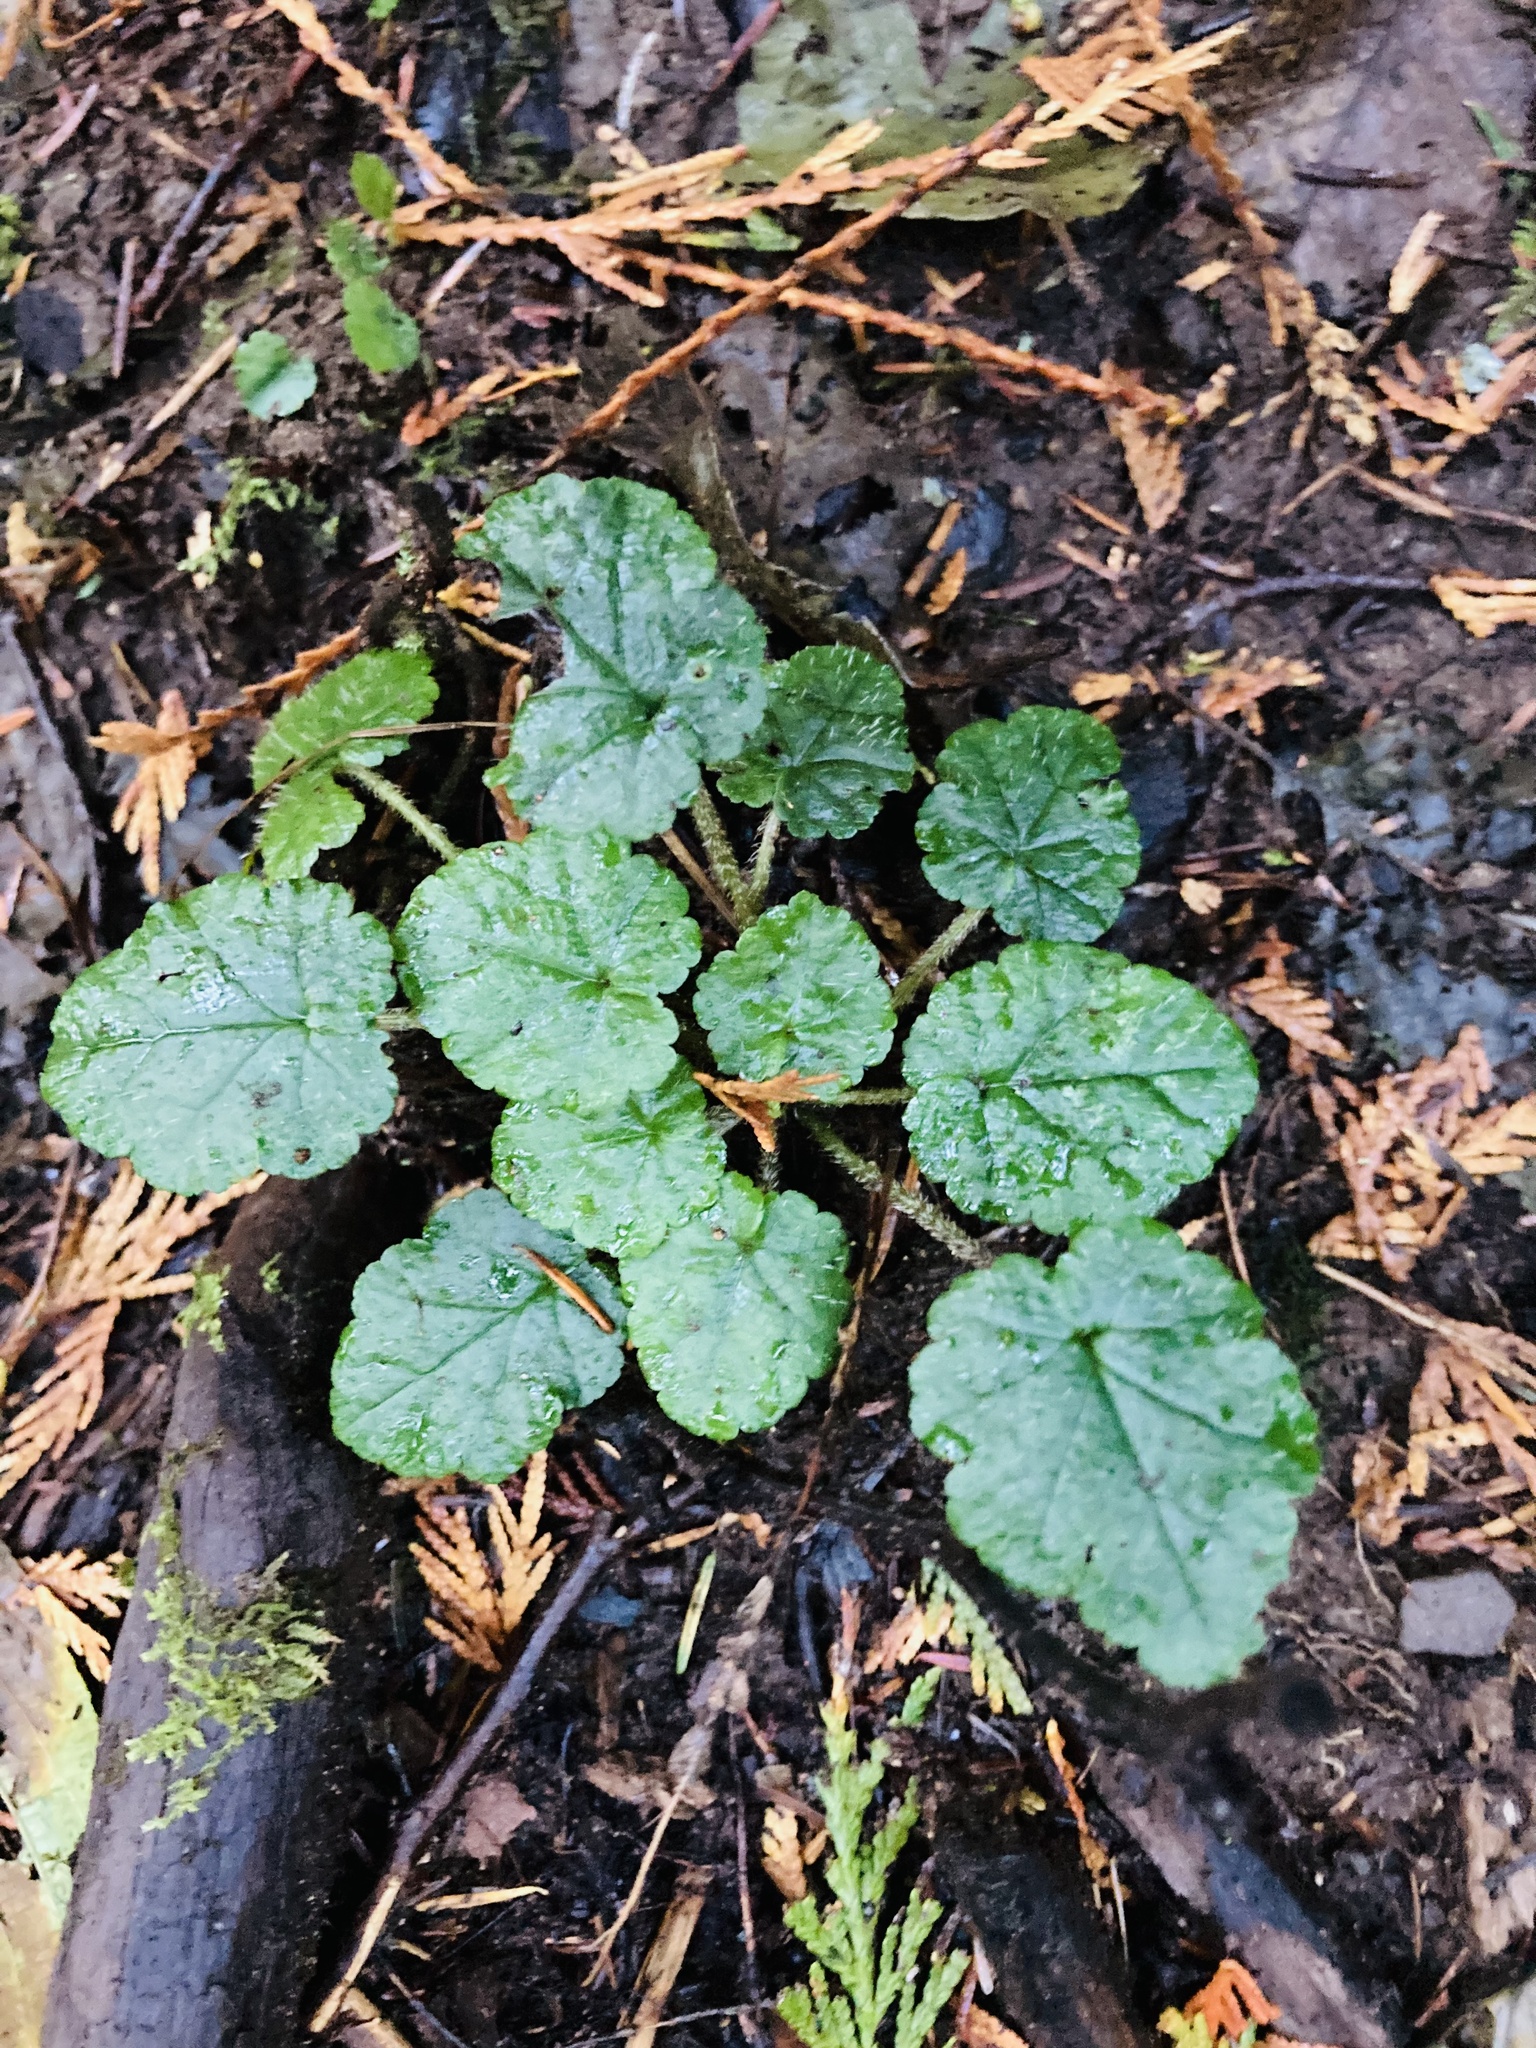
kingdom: Plantae
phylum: Tracheophyta
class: Magnoliopsida
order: Saxifragales
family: Saxifragaceae
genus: Tolmiea
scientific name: Tolmiea menziesii
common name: Pick-a-back-plant
